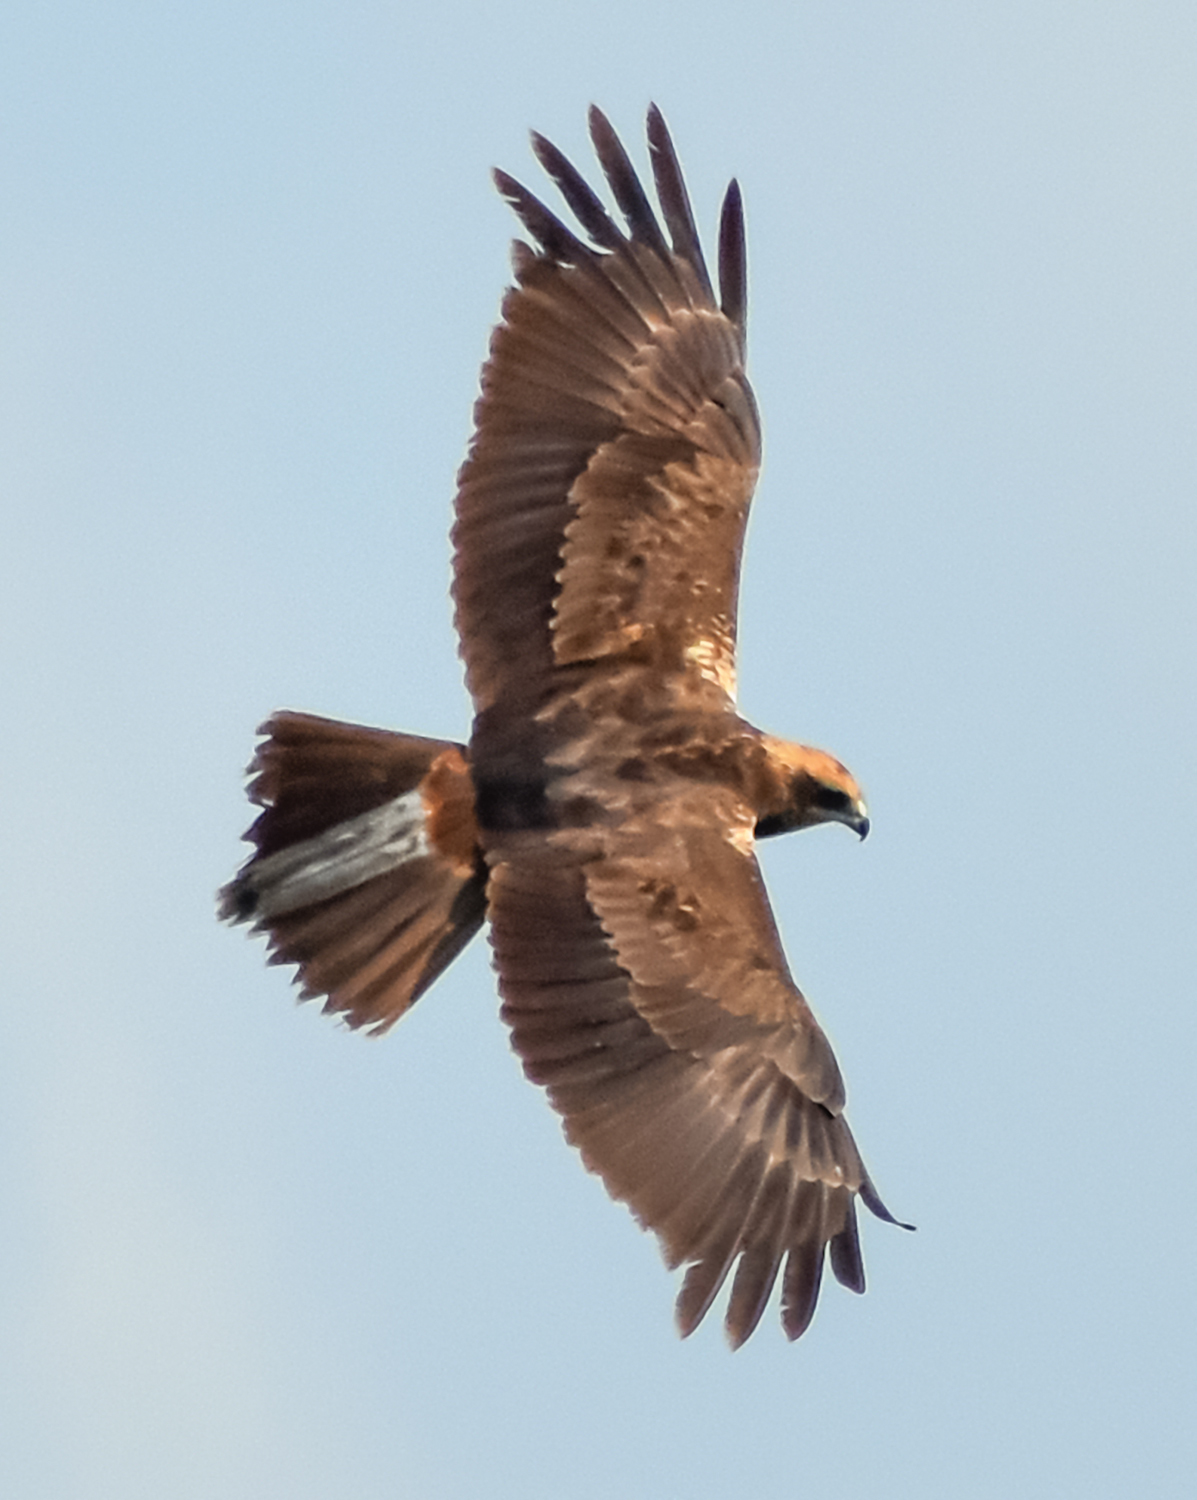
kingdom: Animalia
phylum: Chordata
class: Aves
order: Accipitriformes
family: Accipitridae
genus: Circus
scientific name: Circus aeruginosus
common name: Western marsh harrier
